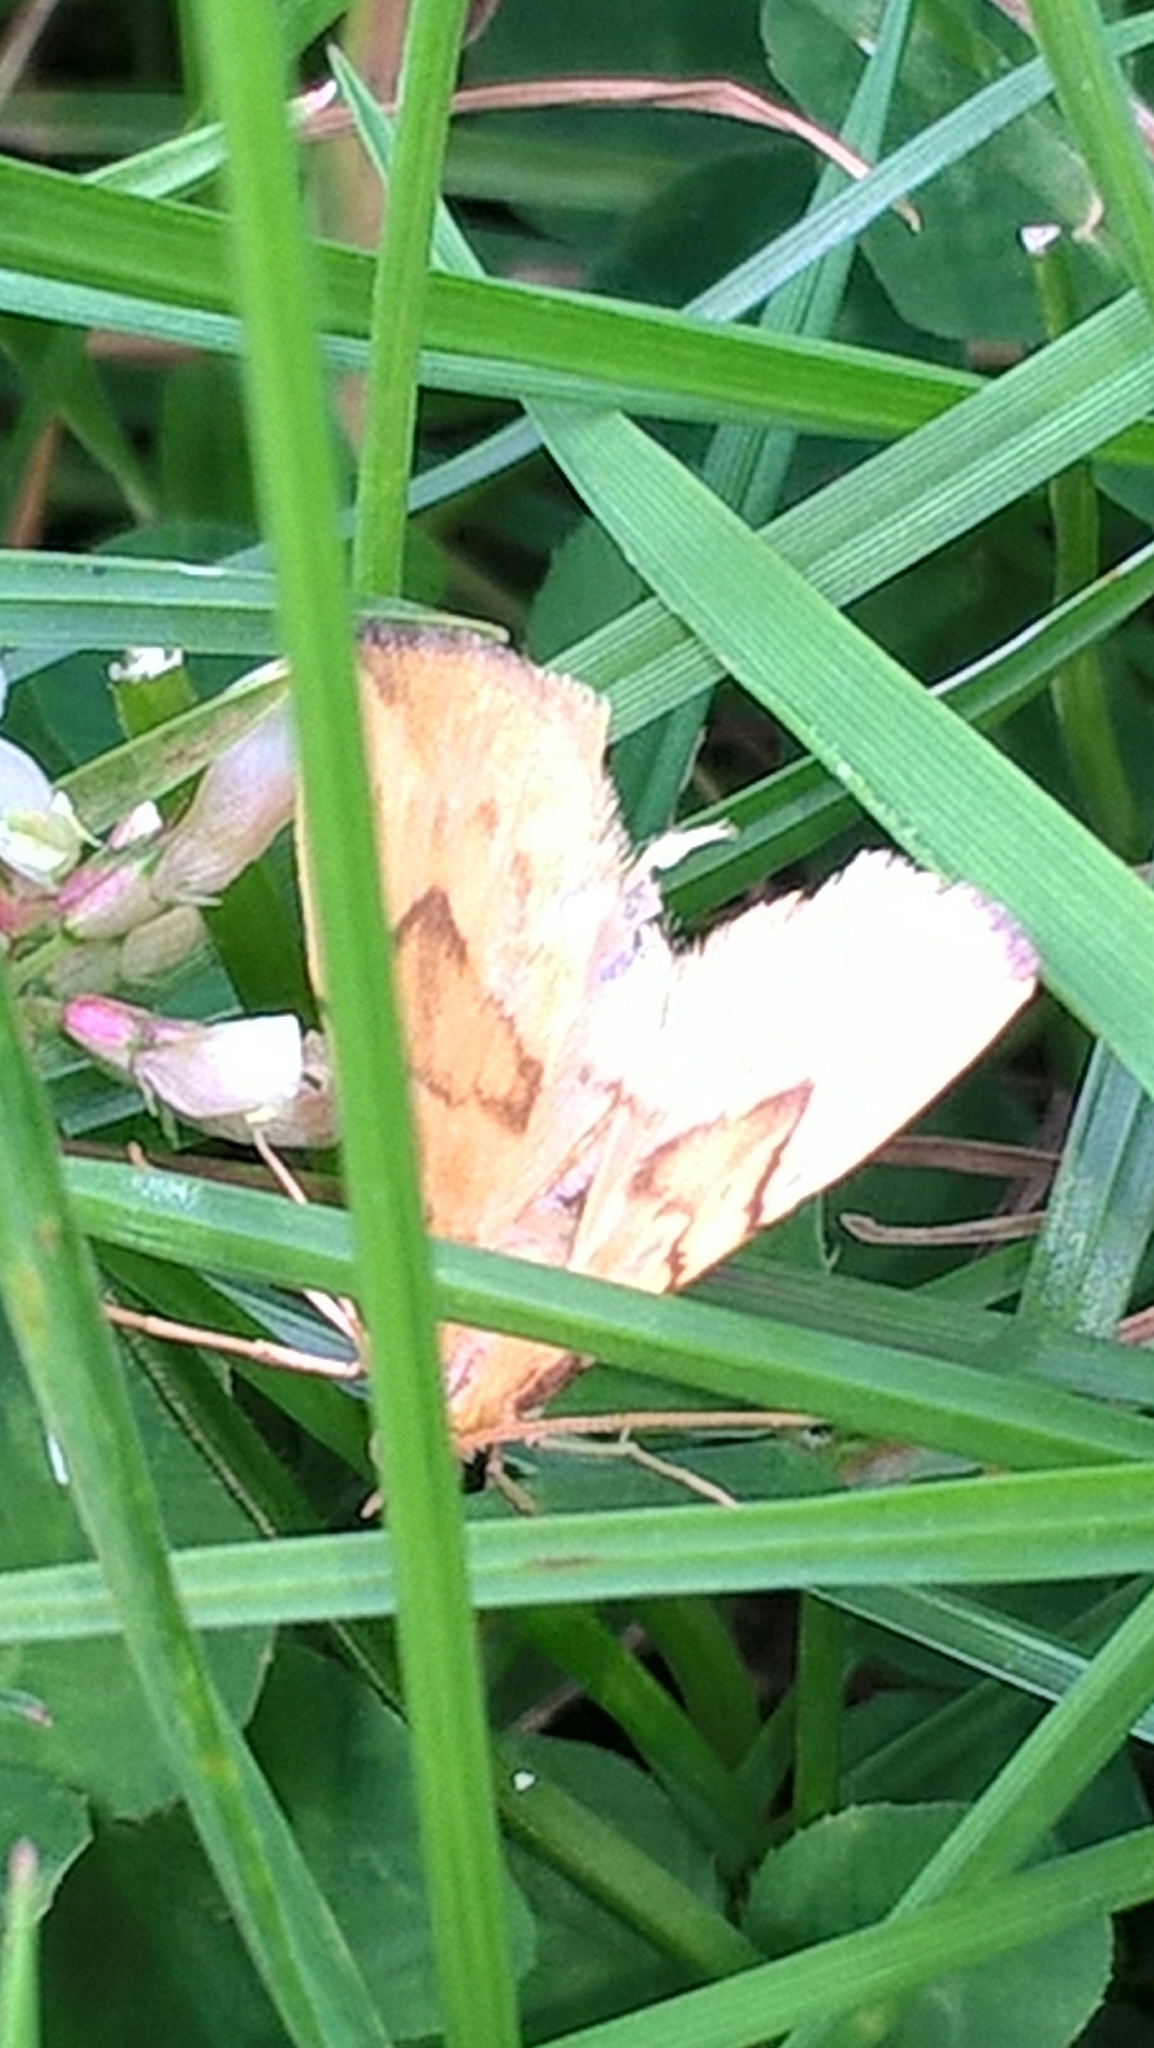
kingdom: Animalia
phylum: Arthropoda
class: Insecta
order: Lepidoptera
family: Geometridae
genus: Eulithis
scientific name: Eulithis mellinata
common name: Spinach
